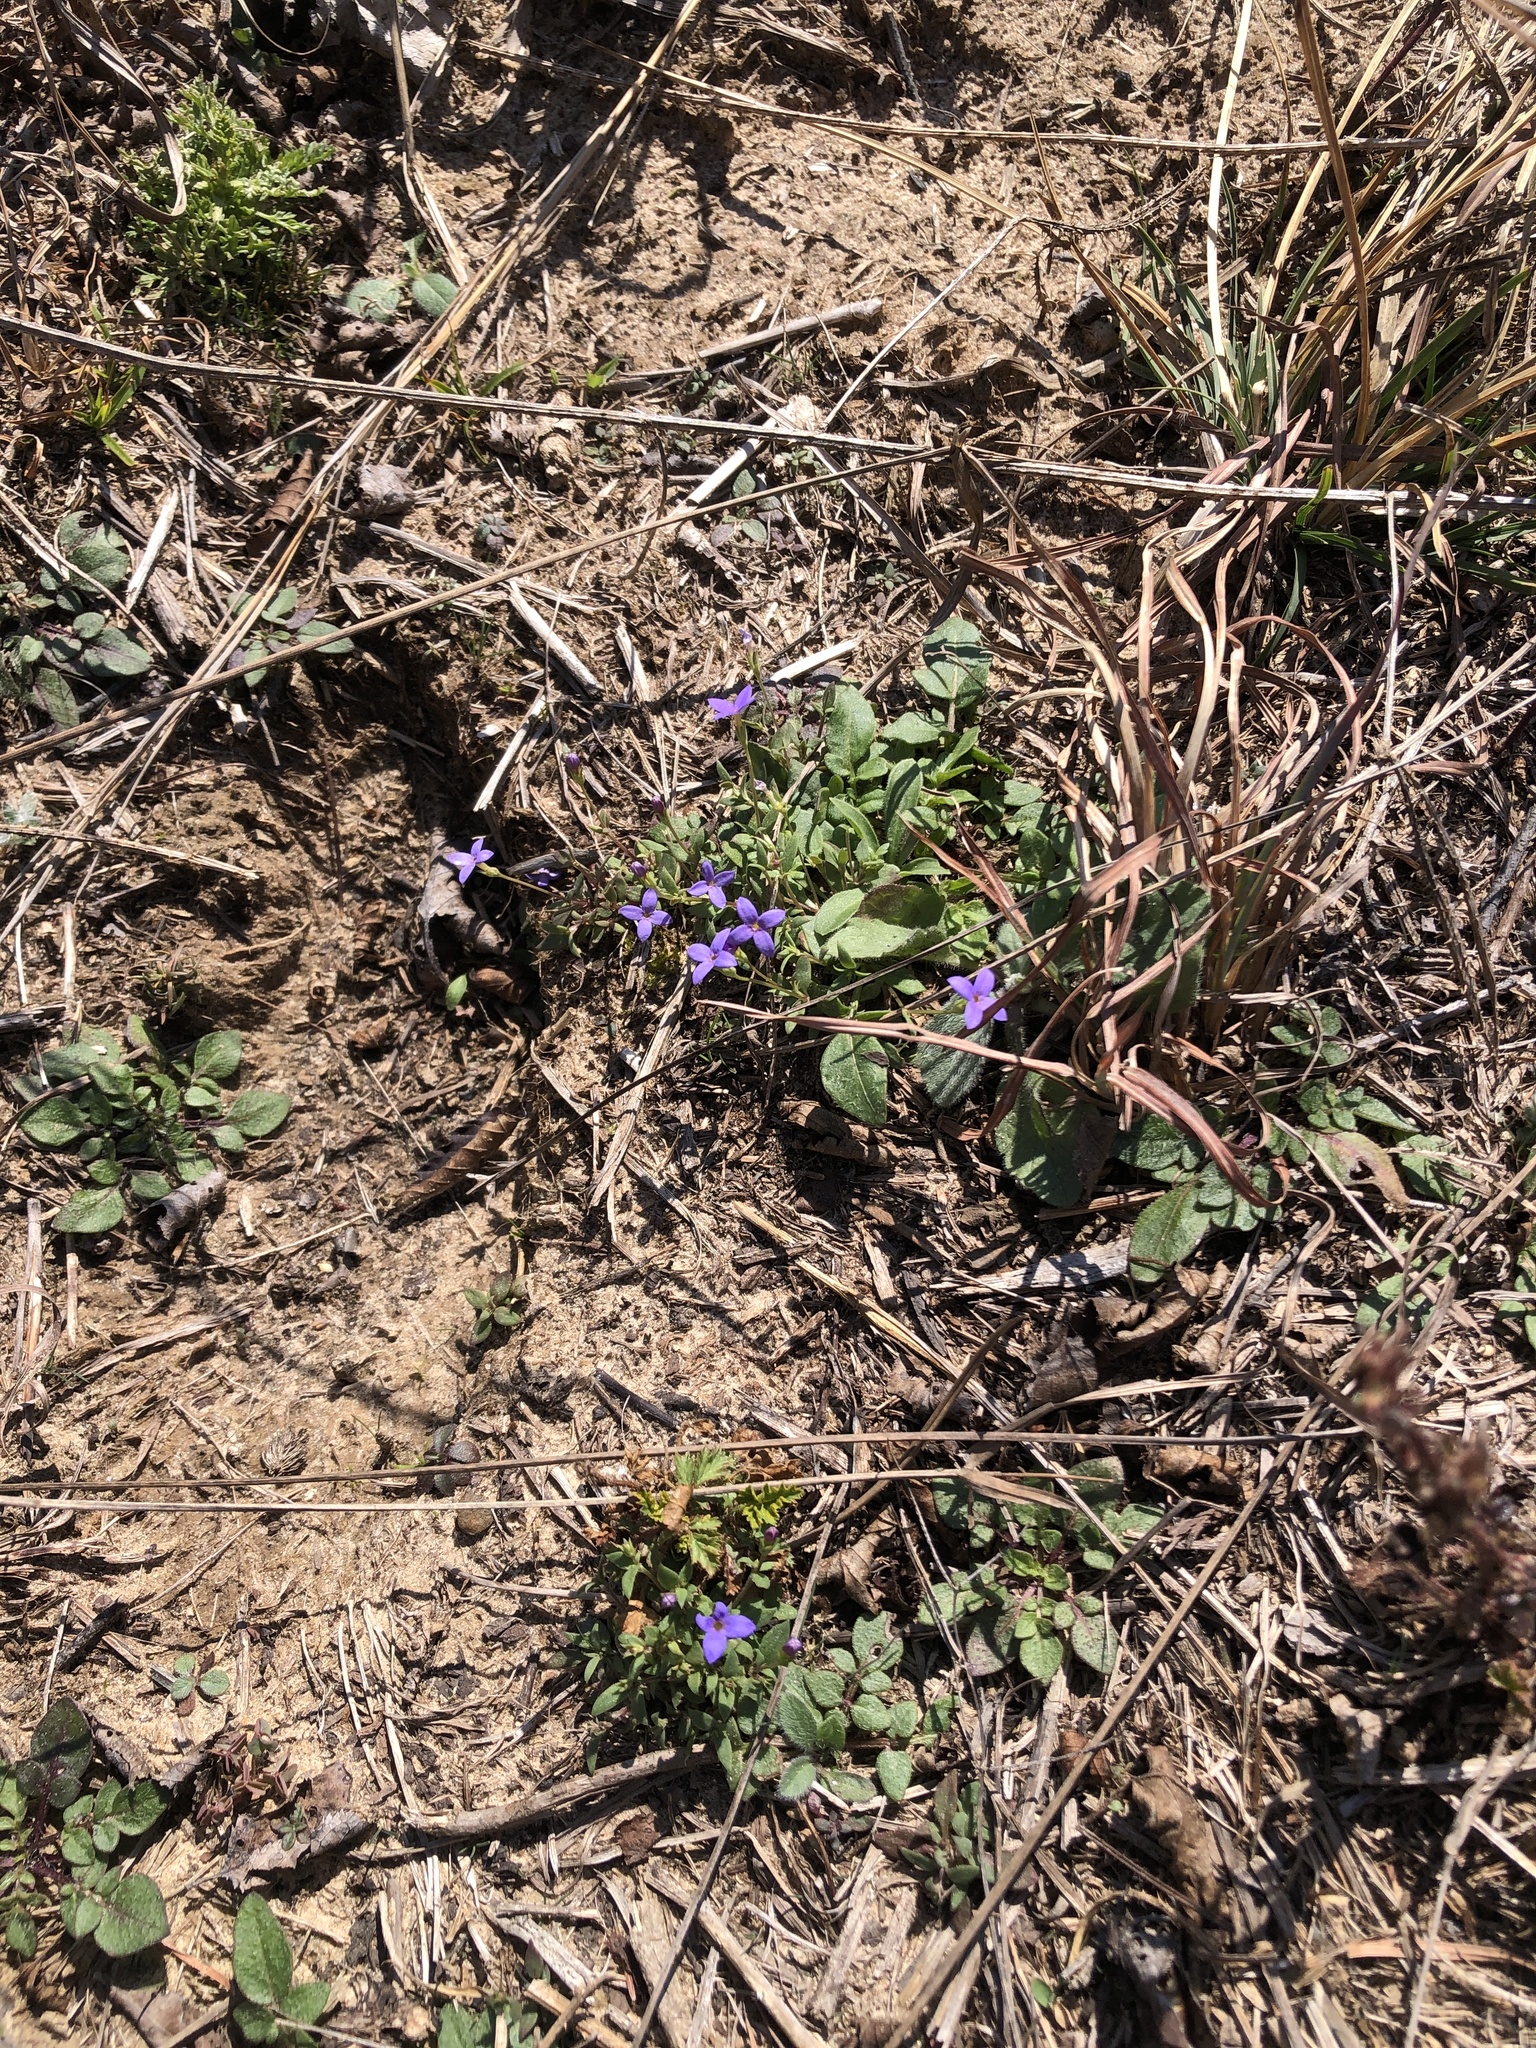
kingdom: Plantae
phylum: Tracheophyta
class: Magnoliopsida
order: Gentianales
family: Rubiaceae
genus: Houstonia
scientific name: Houstonia pusilla
